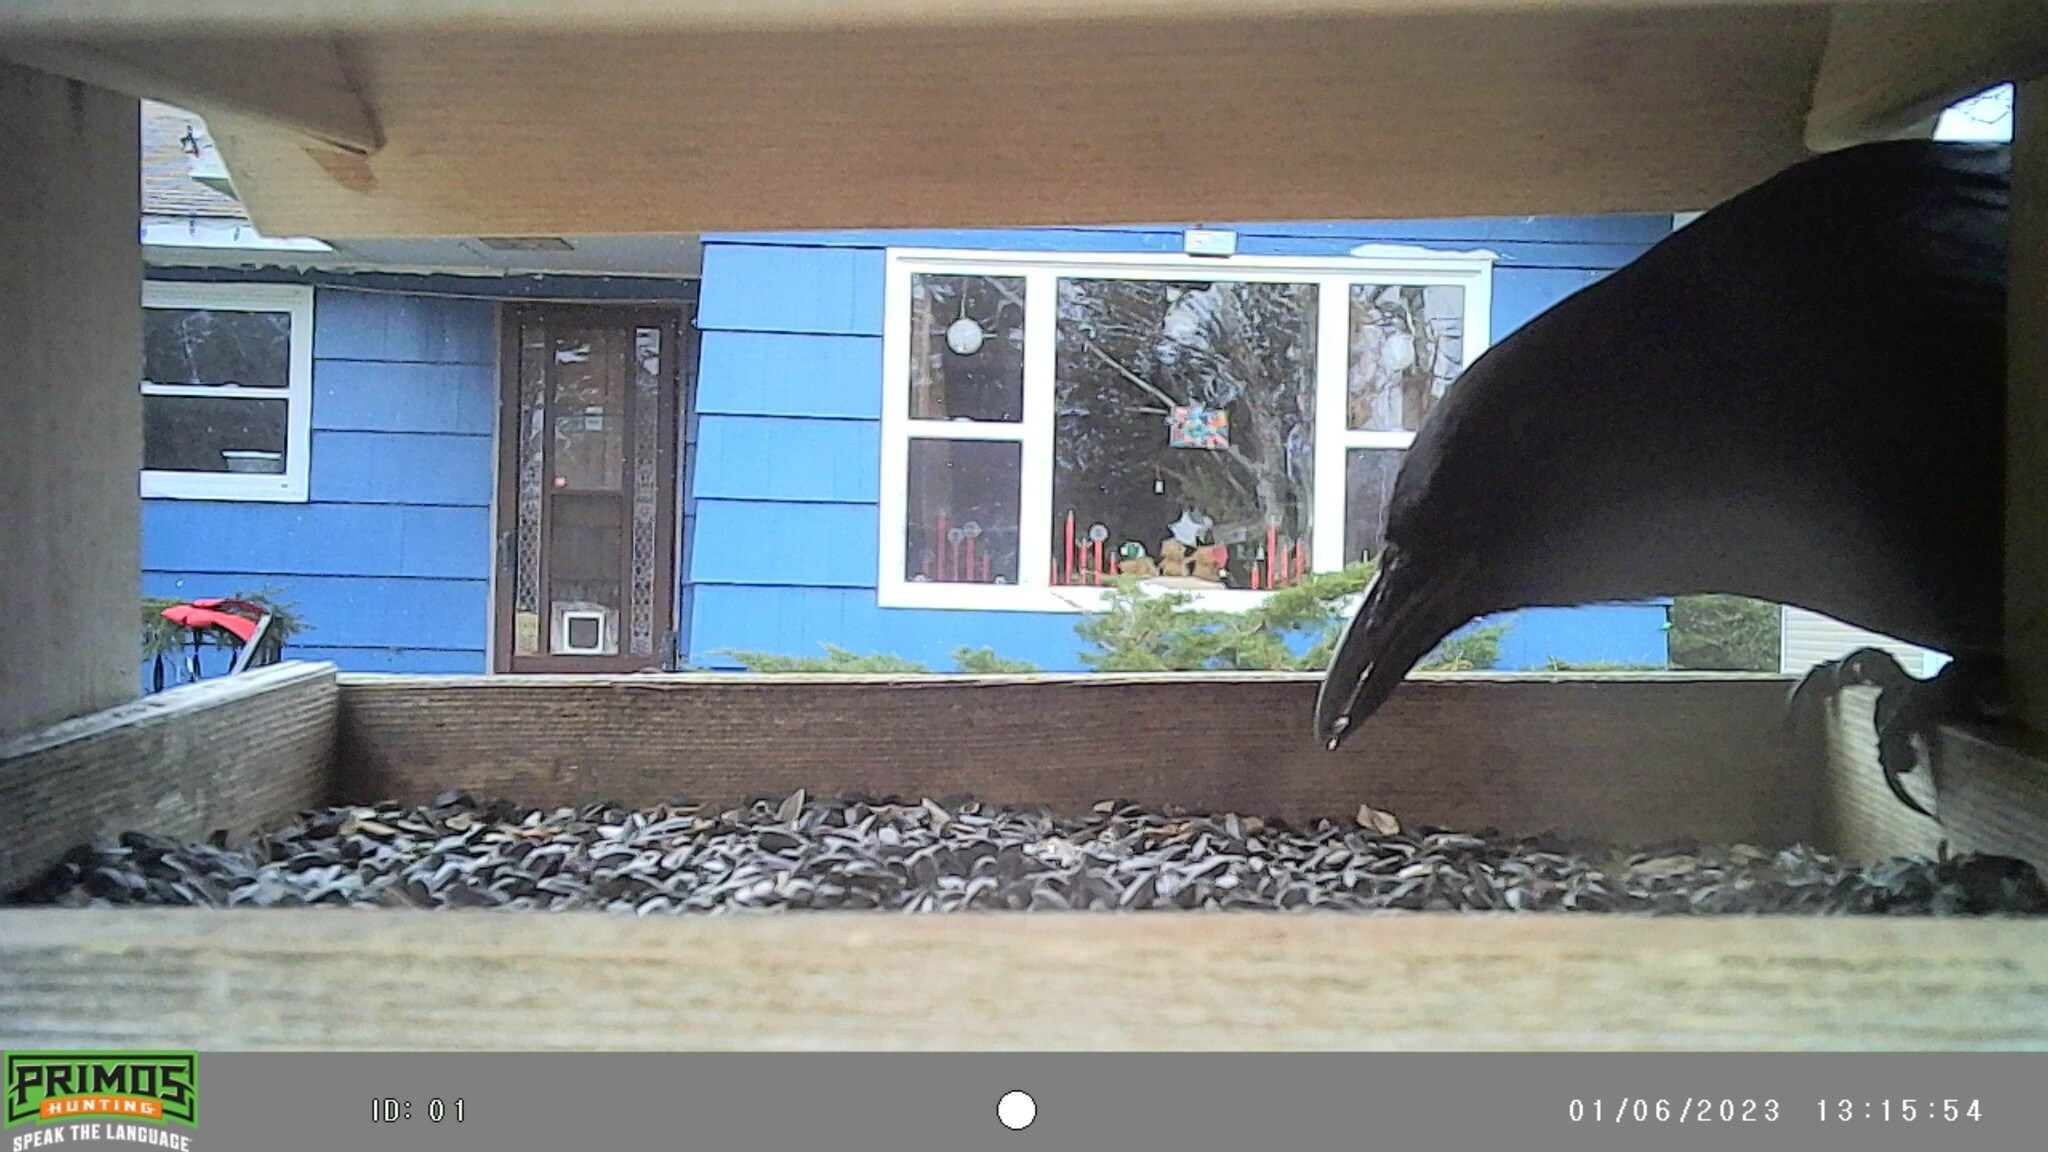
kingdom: Animalia
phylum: Chordata
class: Aves
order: Passeriformes
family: Corvidae
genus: Corvus
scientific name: Corvus brachyrhynchos
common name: American crow
